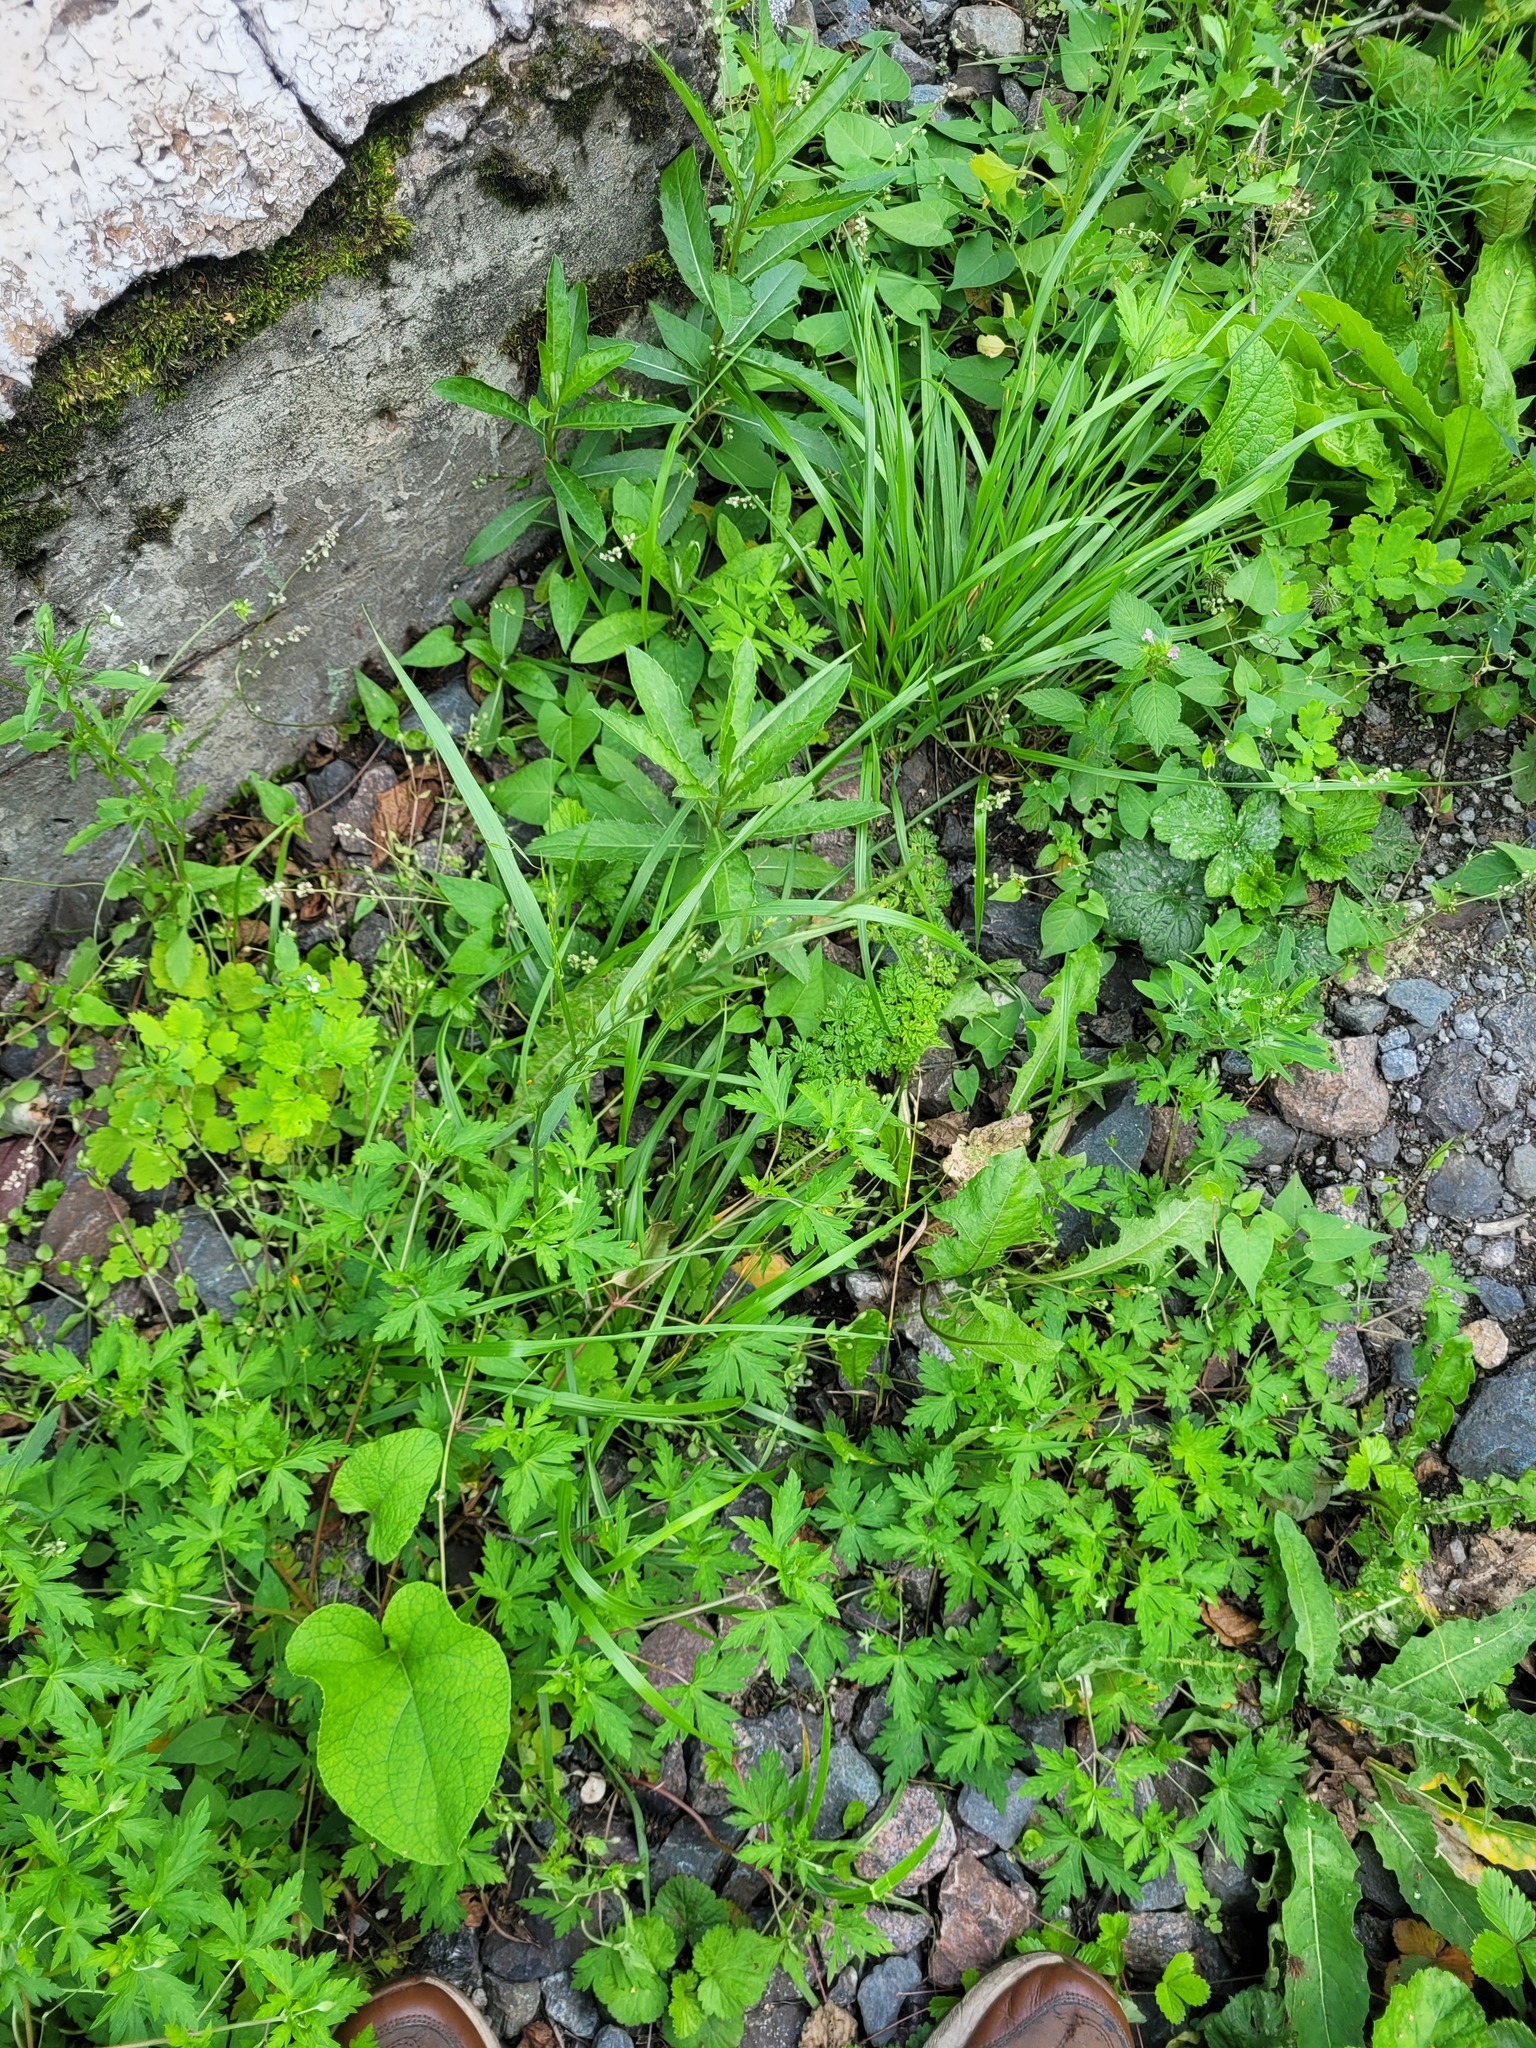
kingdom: Plantae
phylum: Tracheophyta
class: Liliopsida
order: Poales
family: Poaceae
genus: Lolium
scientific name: Lolium pratense
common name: Dover grass
